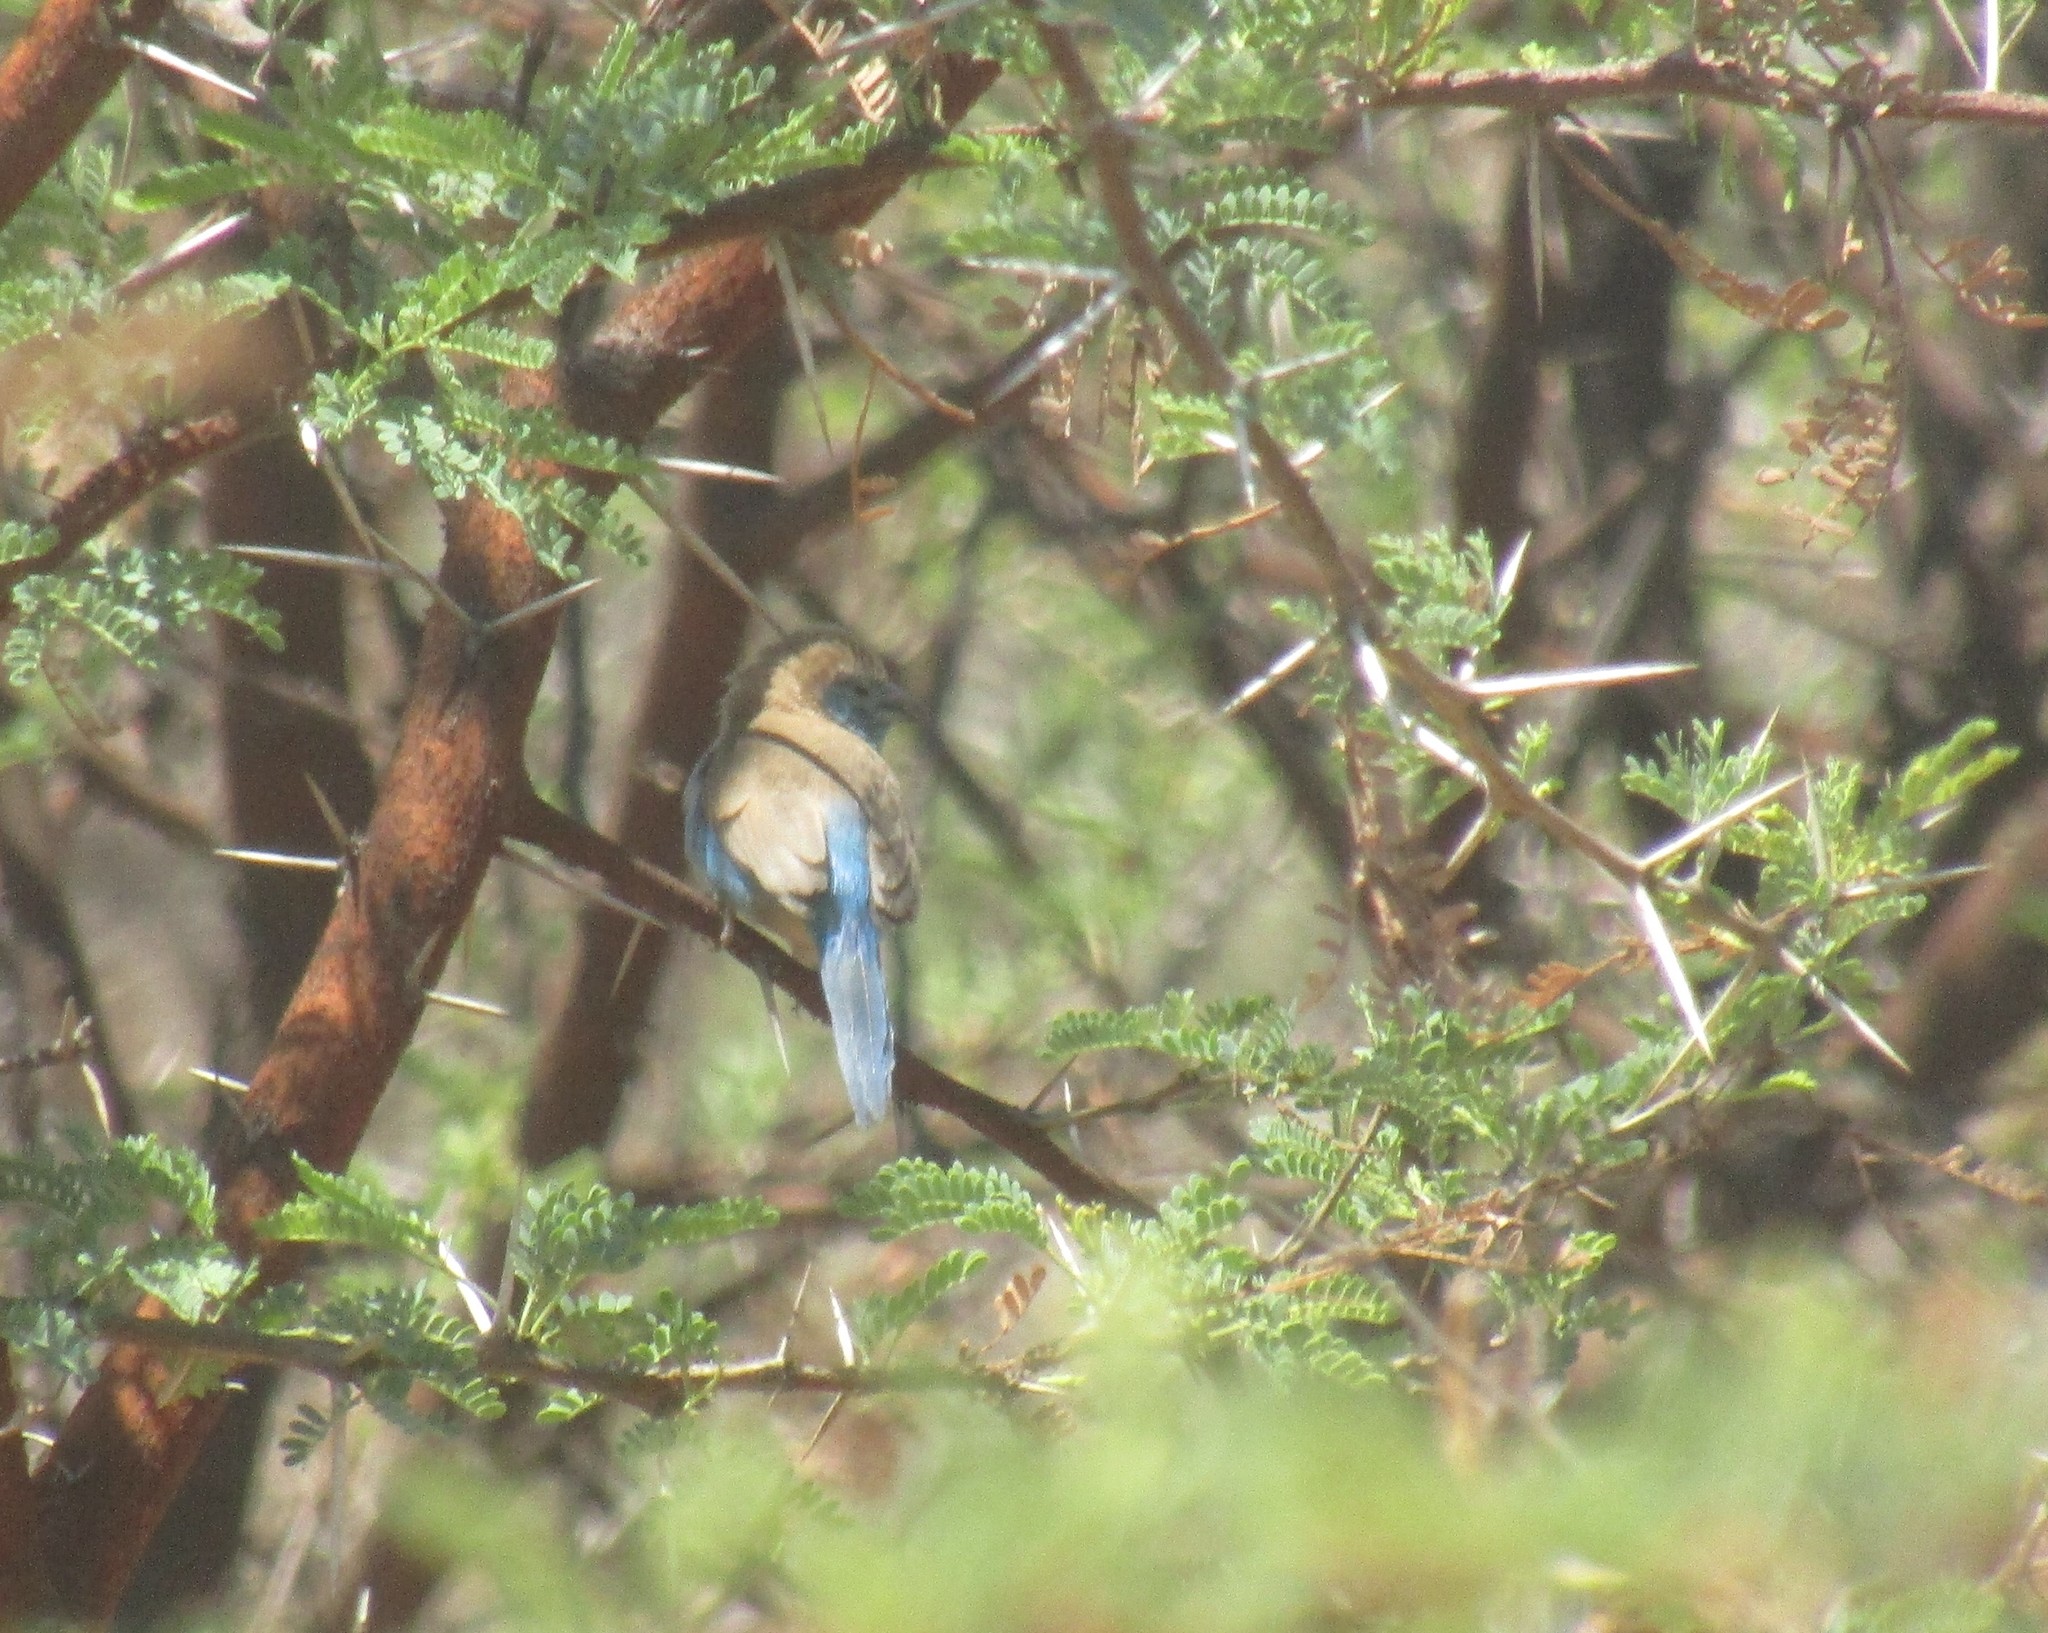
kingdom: Animalia
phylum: Chordata
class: Aves
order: Passeriformes
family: Estrildidae
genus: Uraeginthus
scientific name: Uraeginthus angolensis
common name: Blue waxbill
